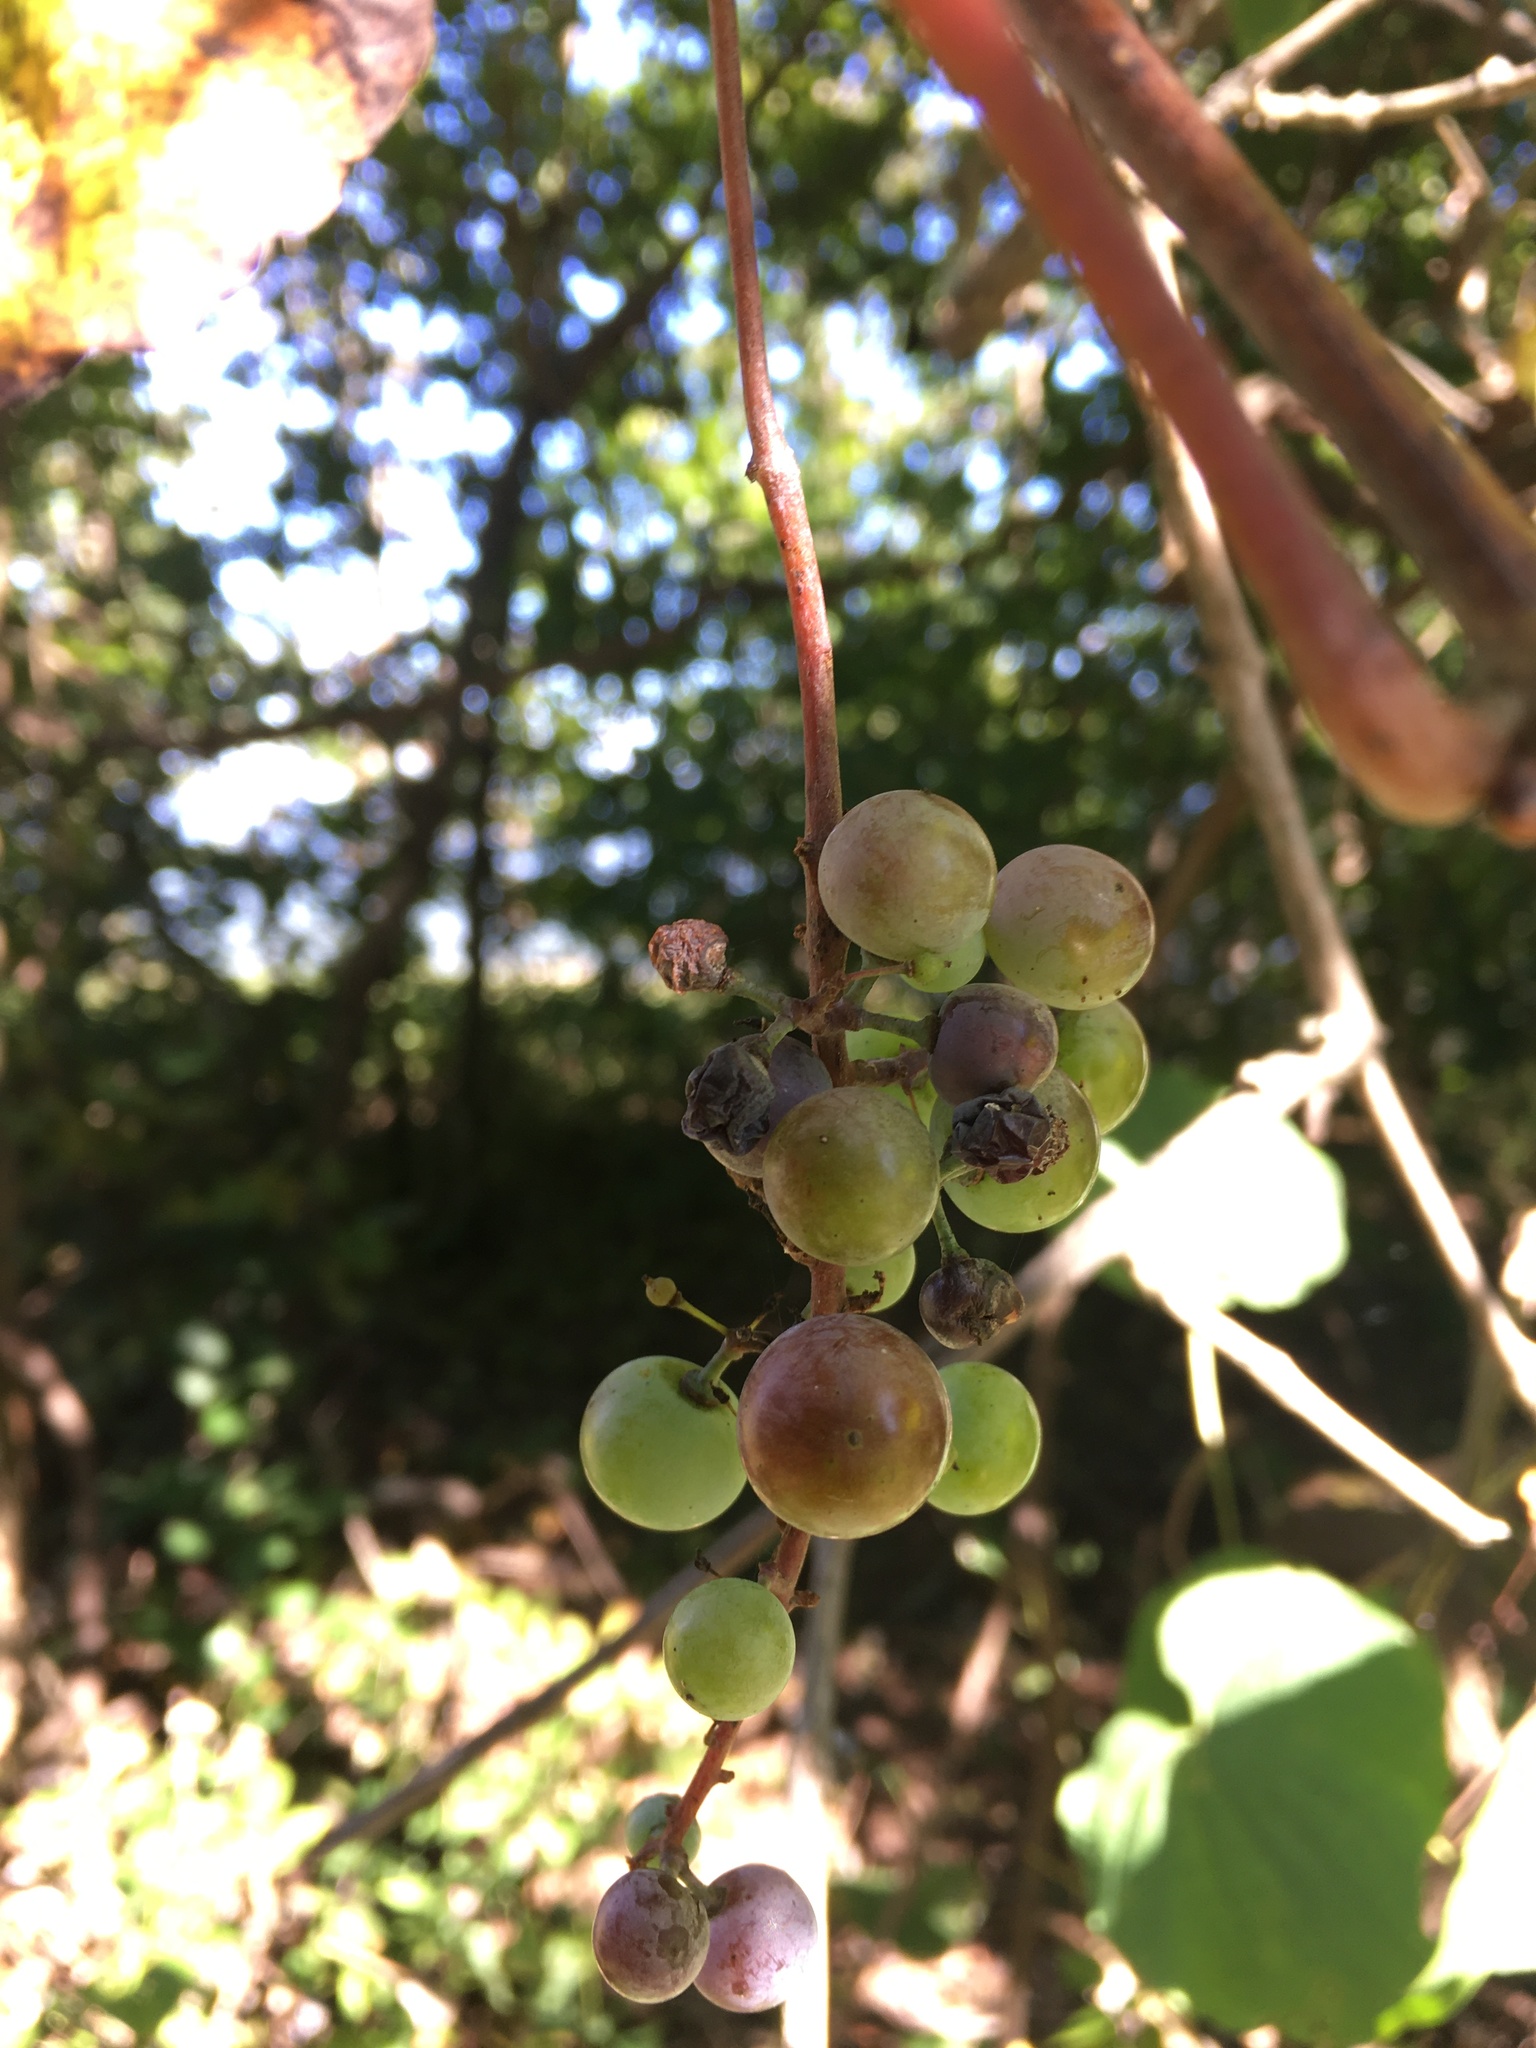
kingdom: Plantae
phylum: Tracheophyta
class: Magnoliopsida
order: Vitales
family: Vitaceae
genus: Vitis
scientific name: Vitis aestivalis
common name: Pigeon grape
